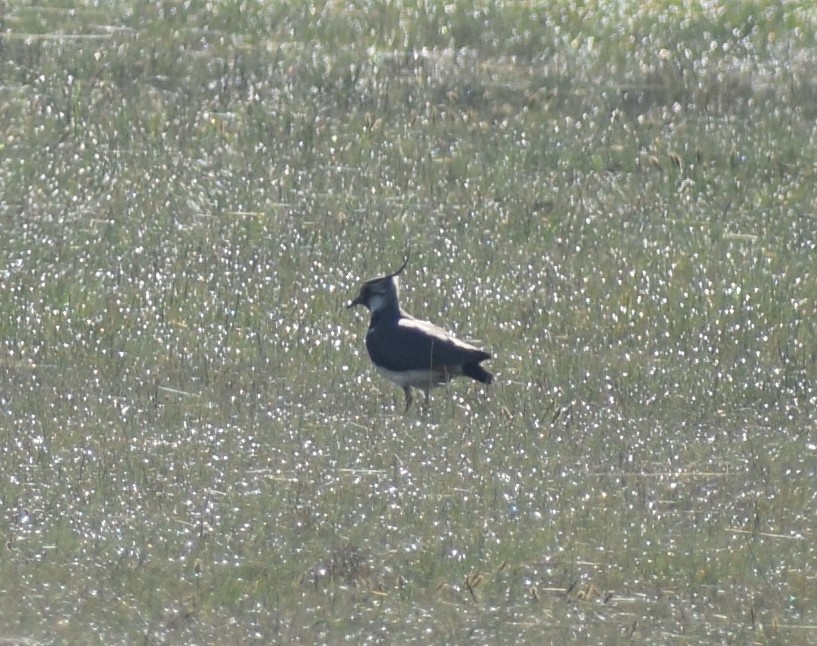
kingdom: Animalia
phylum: Chordata
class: Aves
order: Charadriiformes
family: Charadriidae
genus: Vanellus
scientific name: Vanellus vanellus
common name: Northern lapwing
